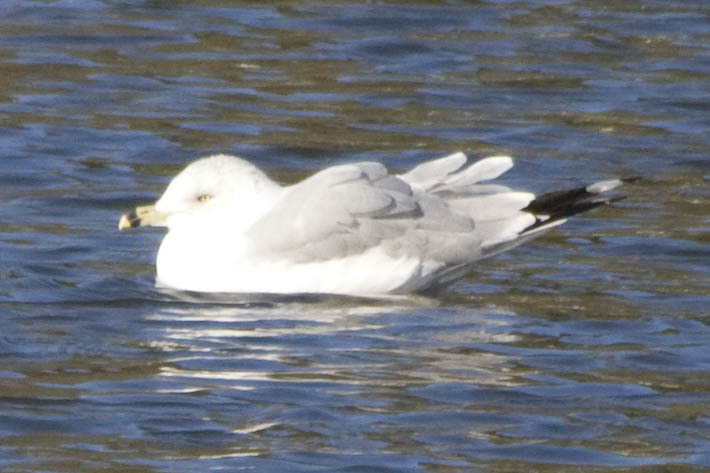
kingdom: Animalia
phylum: Chordata
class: Aves
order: Charadriiformes
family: Laridae
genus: Larus
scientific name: Larus delawarensis
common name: Ring-billed gull
